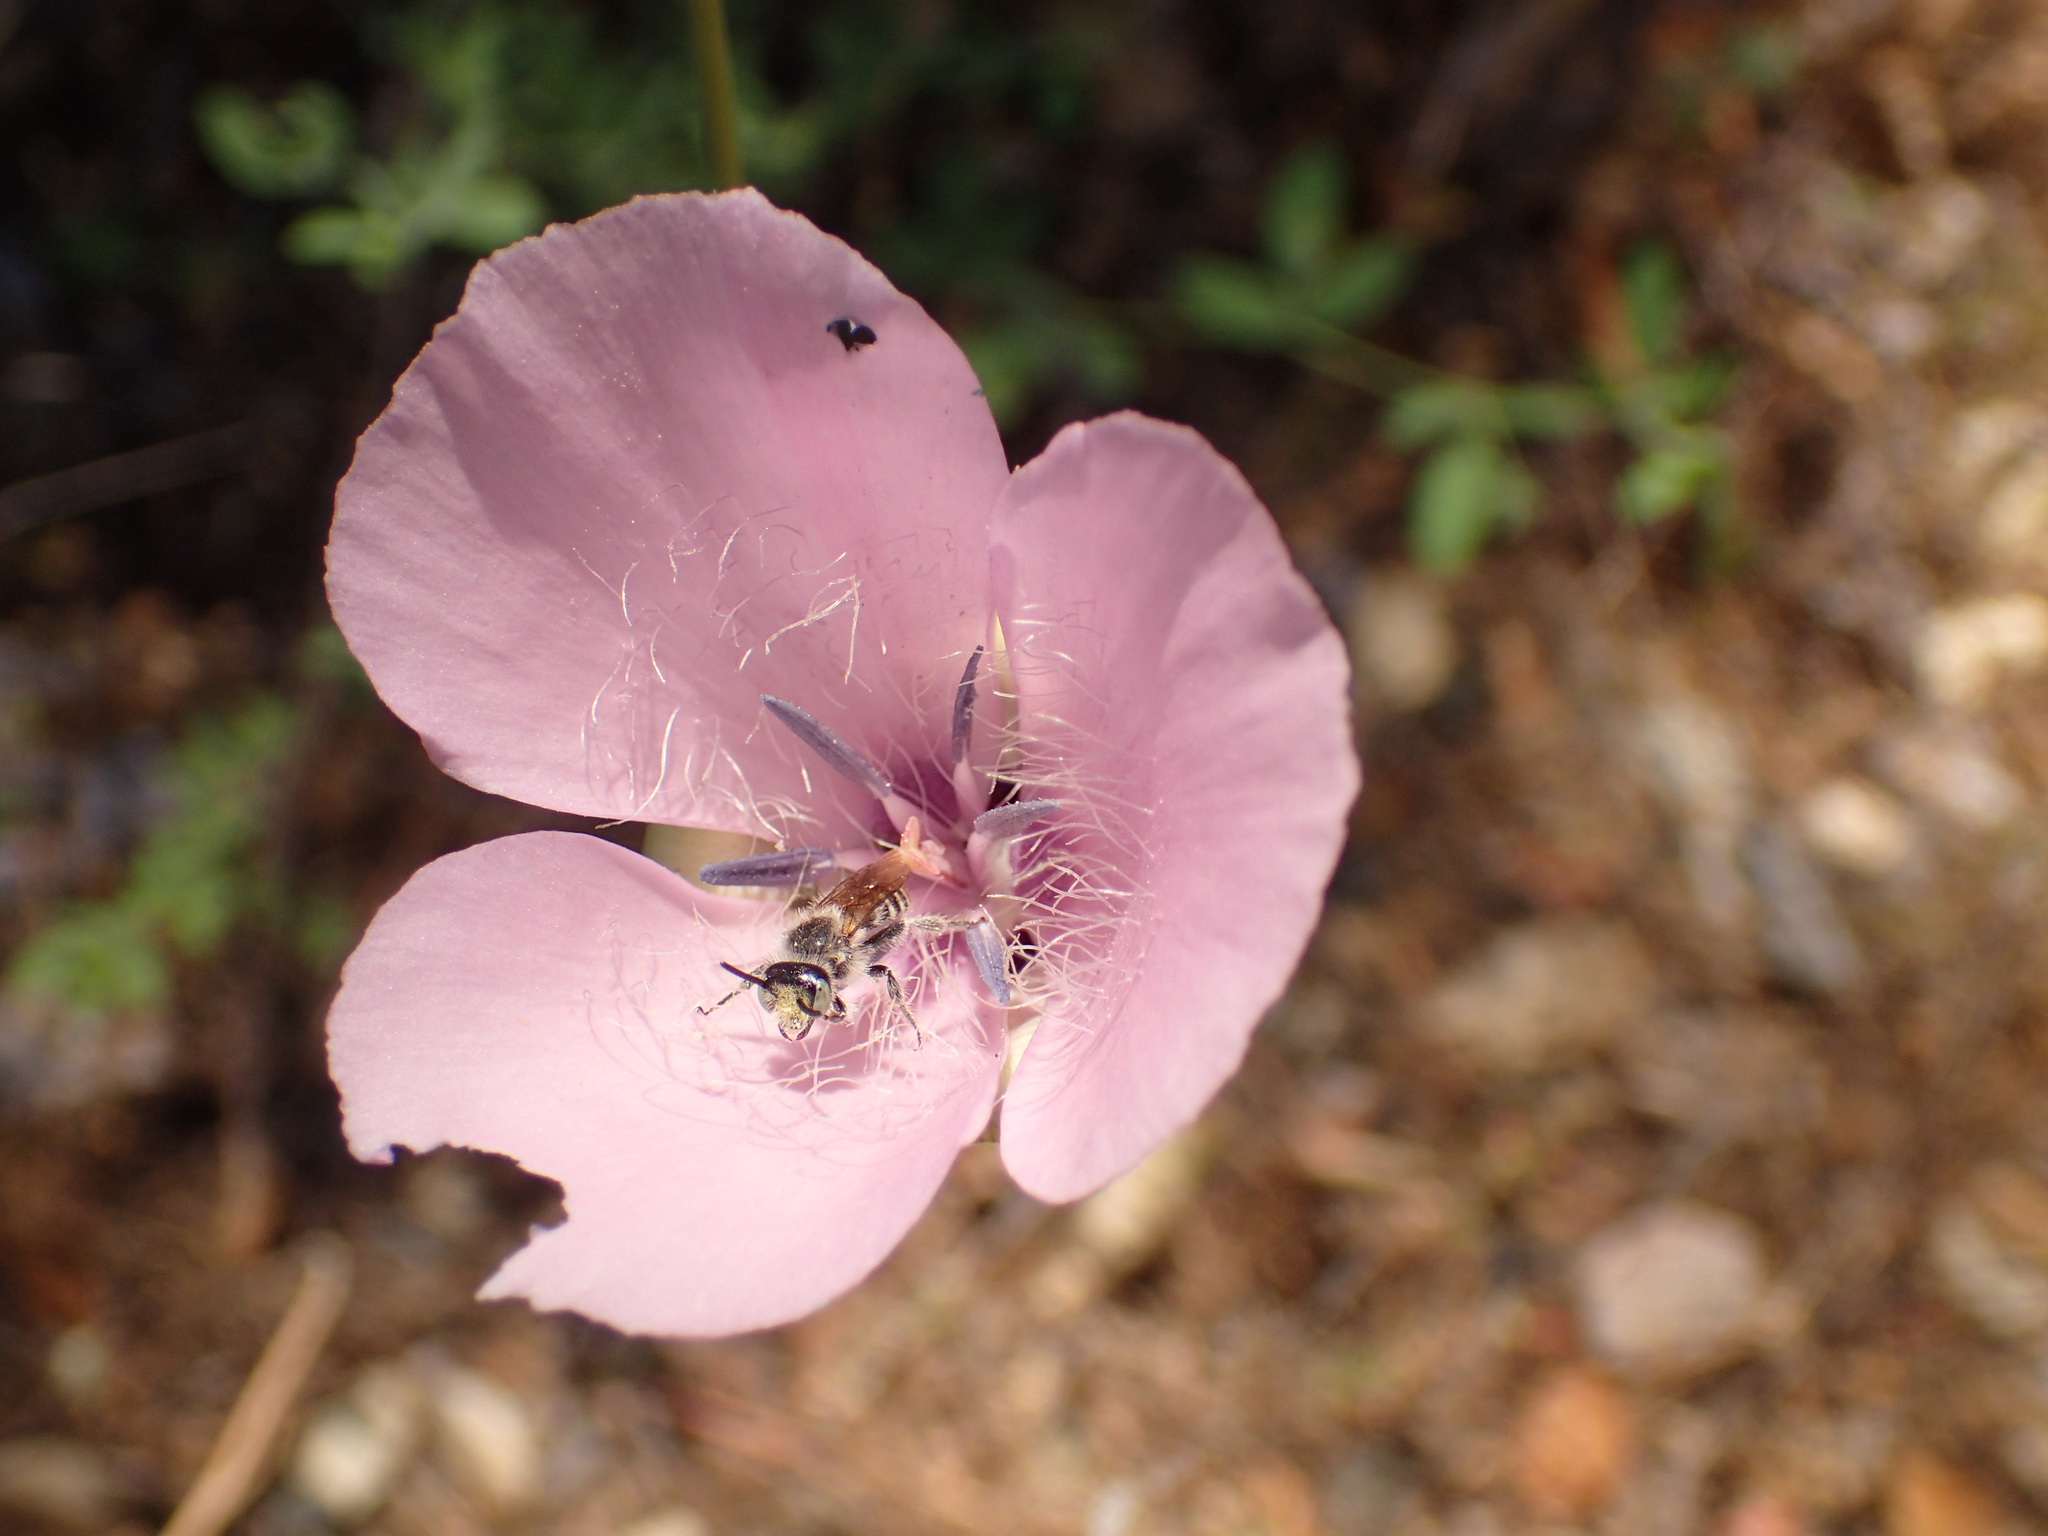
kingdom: Plantae
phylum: Tracheophyta
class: Liliopsida
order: Liliales
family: Liliaceae
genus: Calochortus
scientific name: Calochortus splendens
